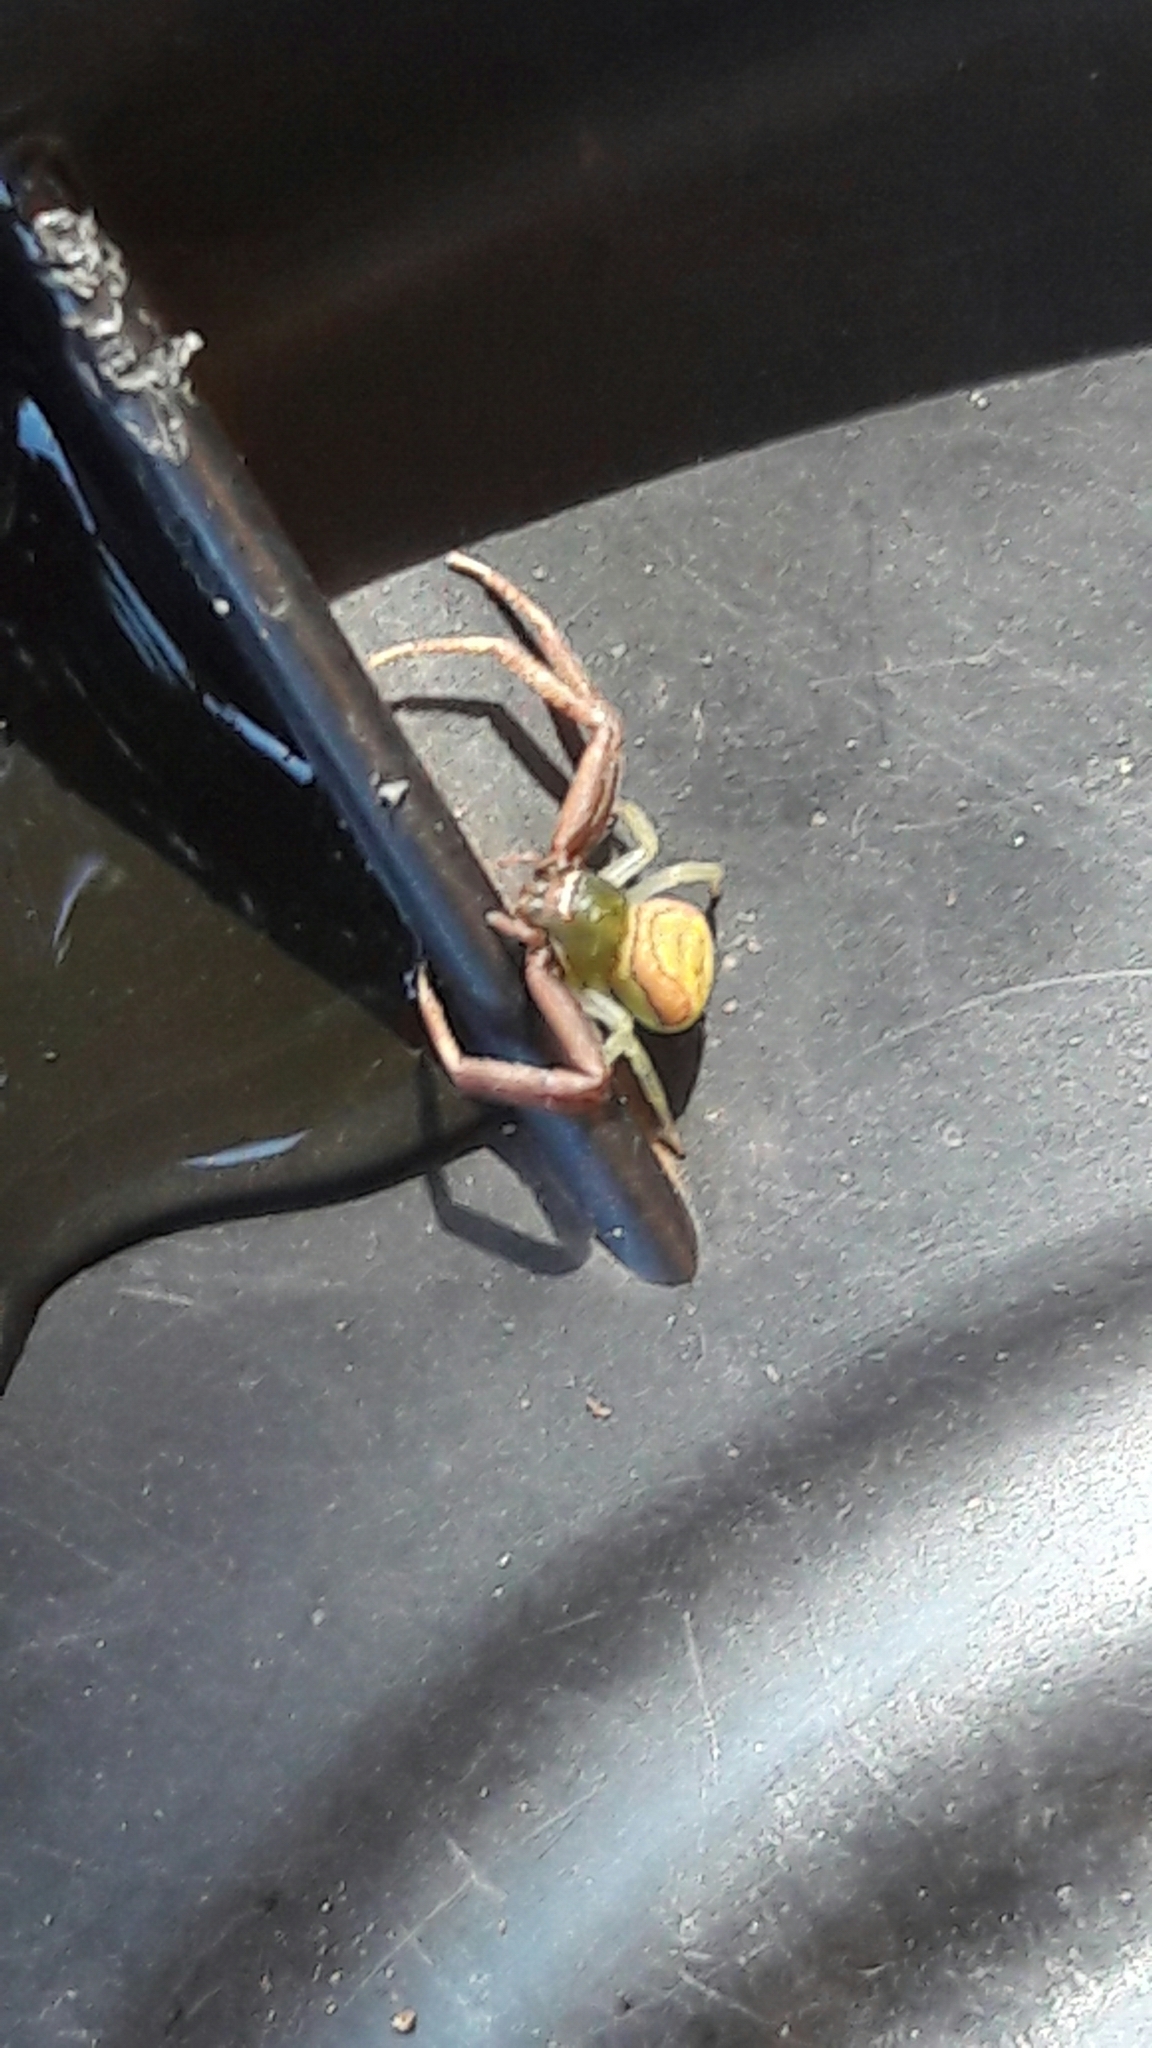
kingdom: Animalia
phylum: Arthropoda
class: Arachnida
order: Araneae
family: Thomisidae
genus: Runcinioides
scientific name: Runcinioides litteratus
